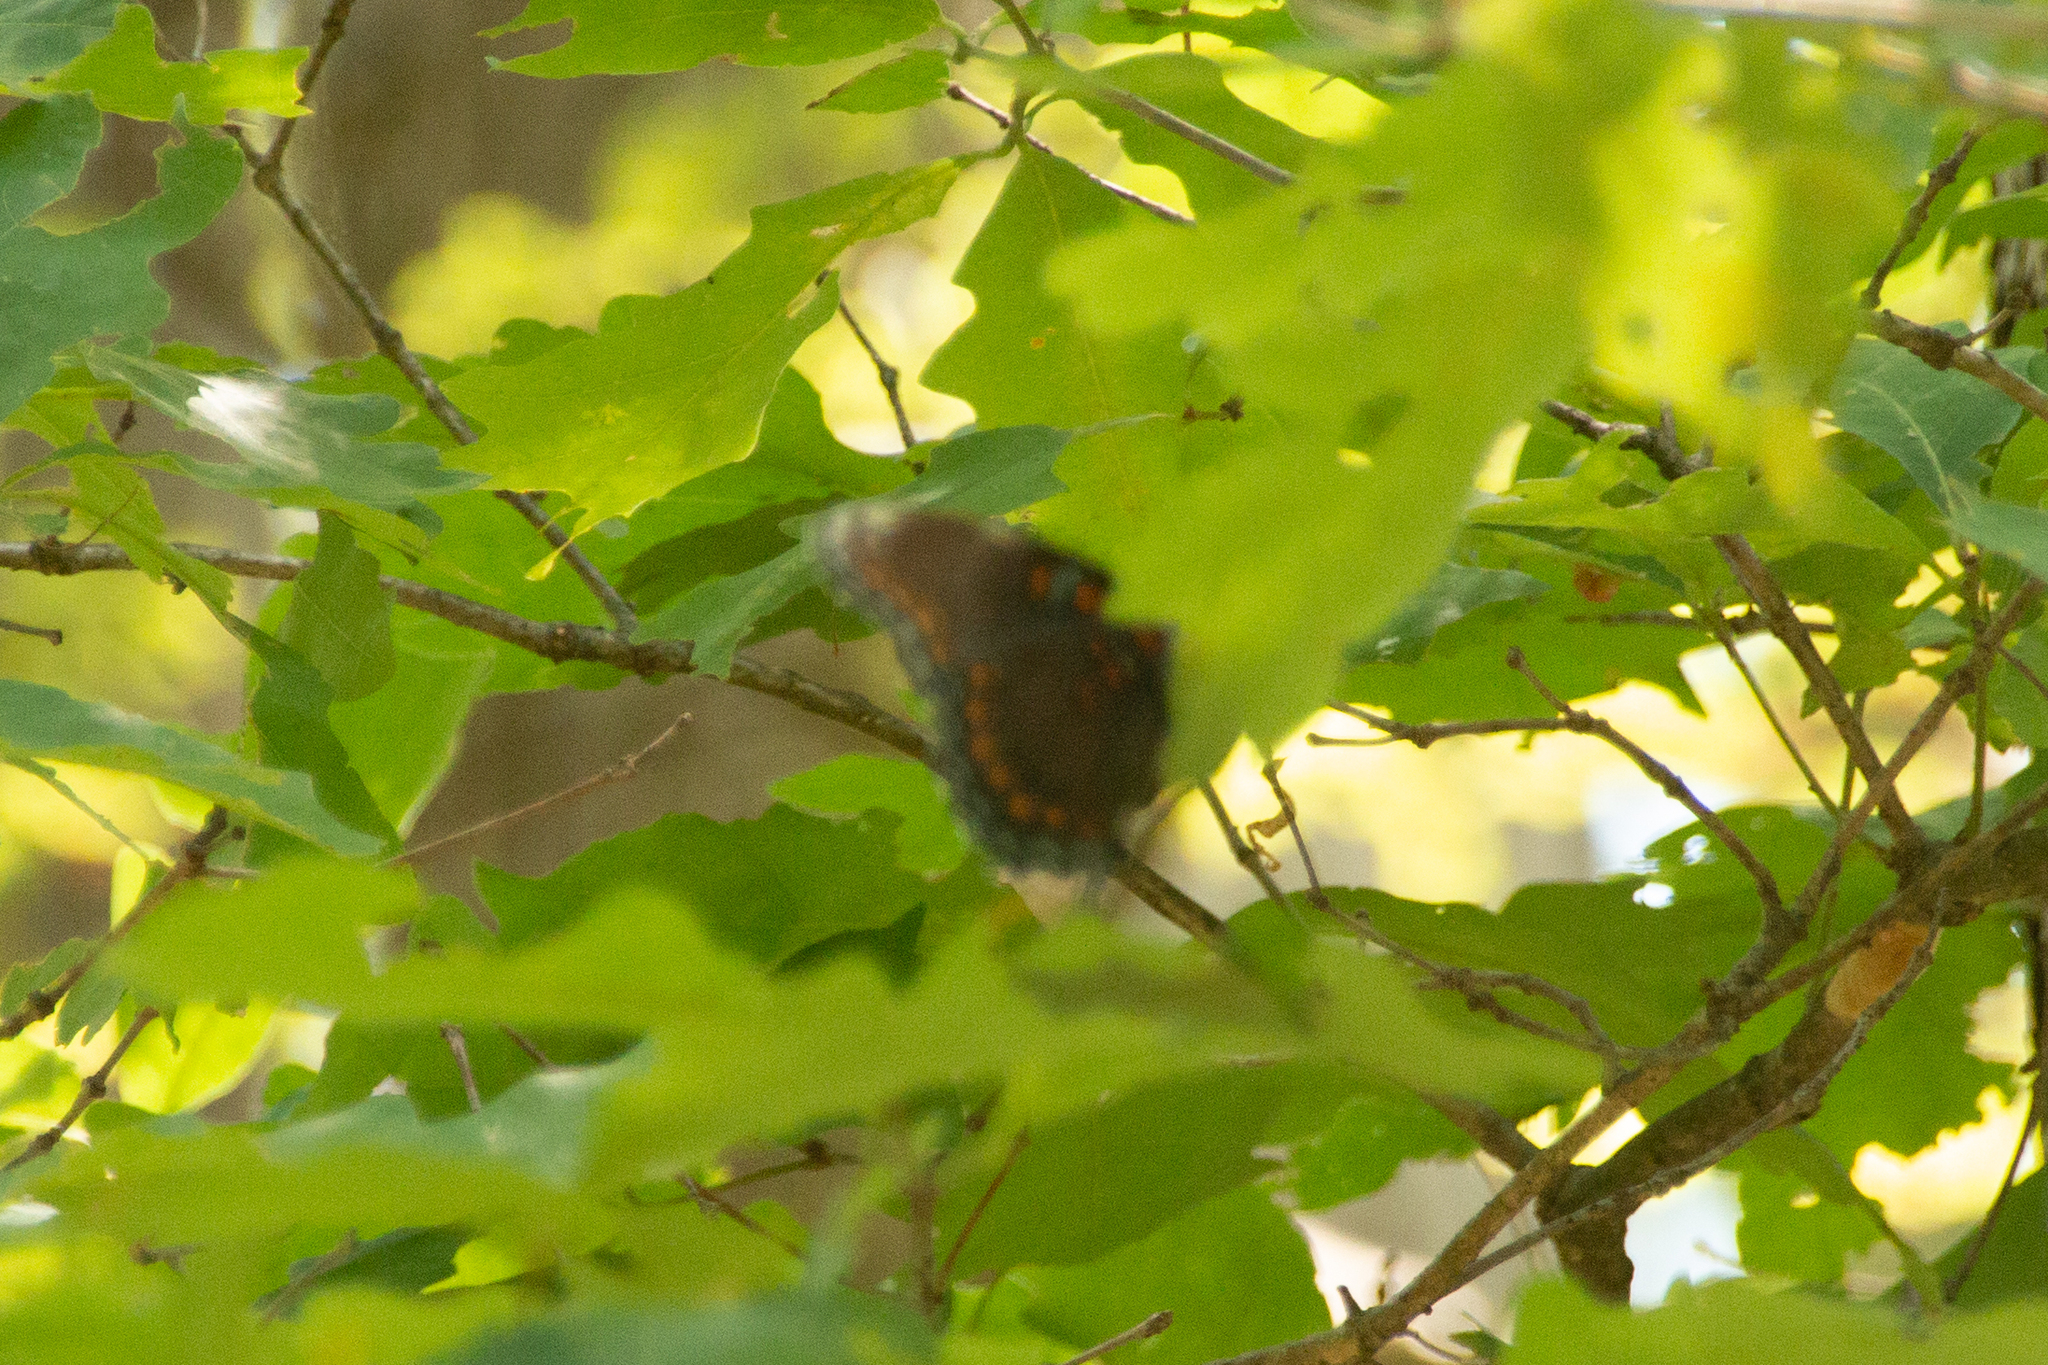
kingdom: Animalia
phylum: Arthropoda
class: Insecta
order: Lepidoptera
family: Nymphalidae
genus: Limenitis
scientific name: Limenitis astyanax
